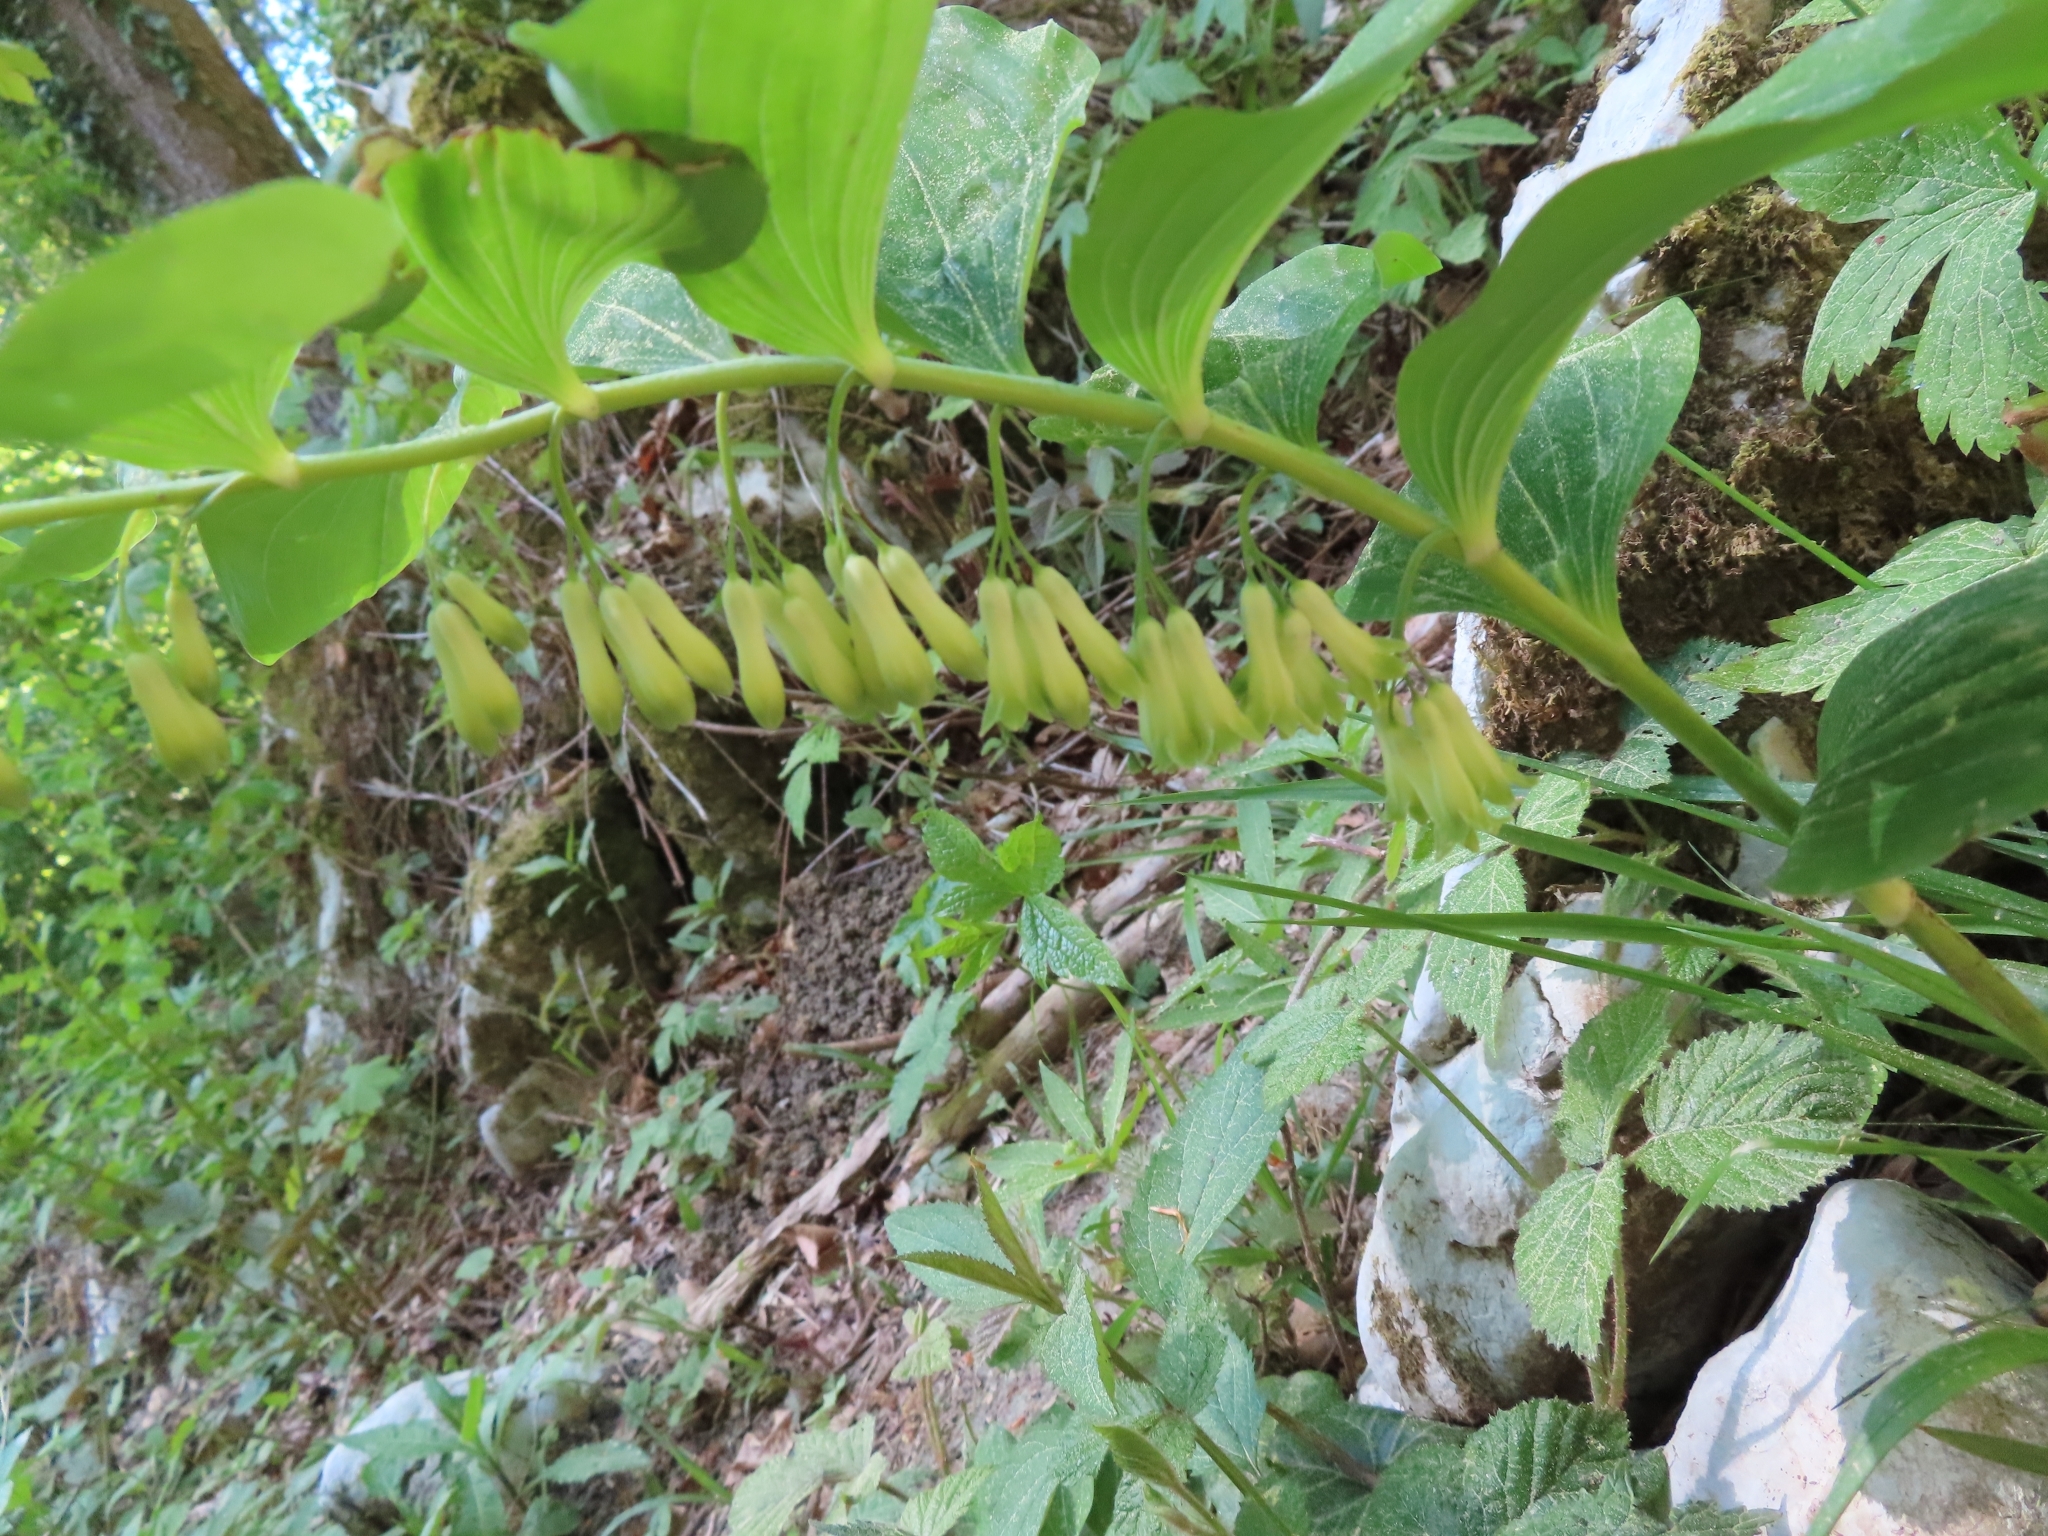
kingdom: Plantae
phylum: Tracheophyta
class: Liliopsida
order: Asparagales
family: Asparagaceae
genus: Polygonatum
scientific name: Polygonatum multiflorum
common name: Solomon's-seal
